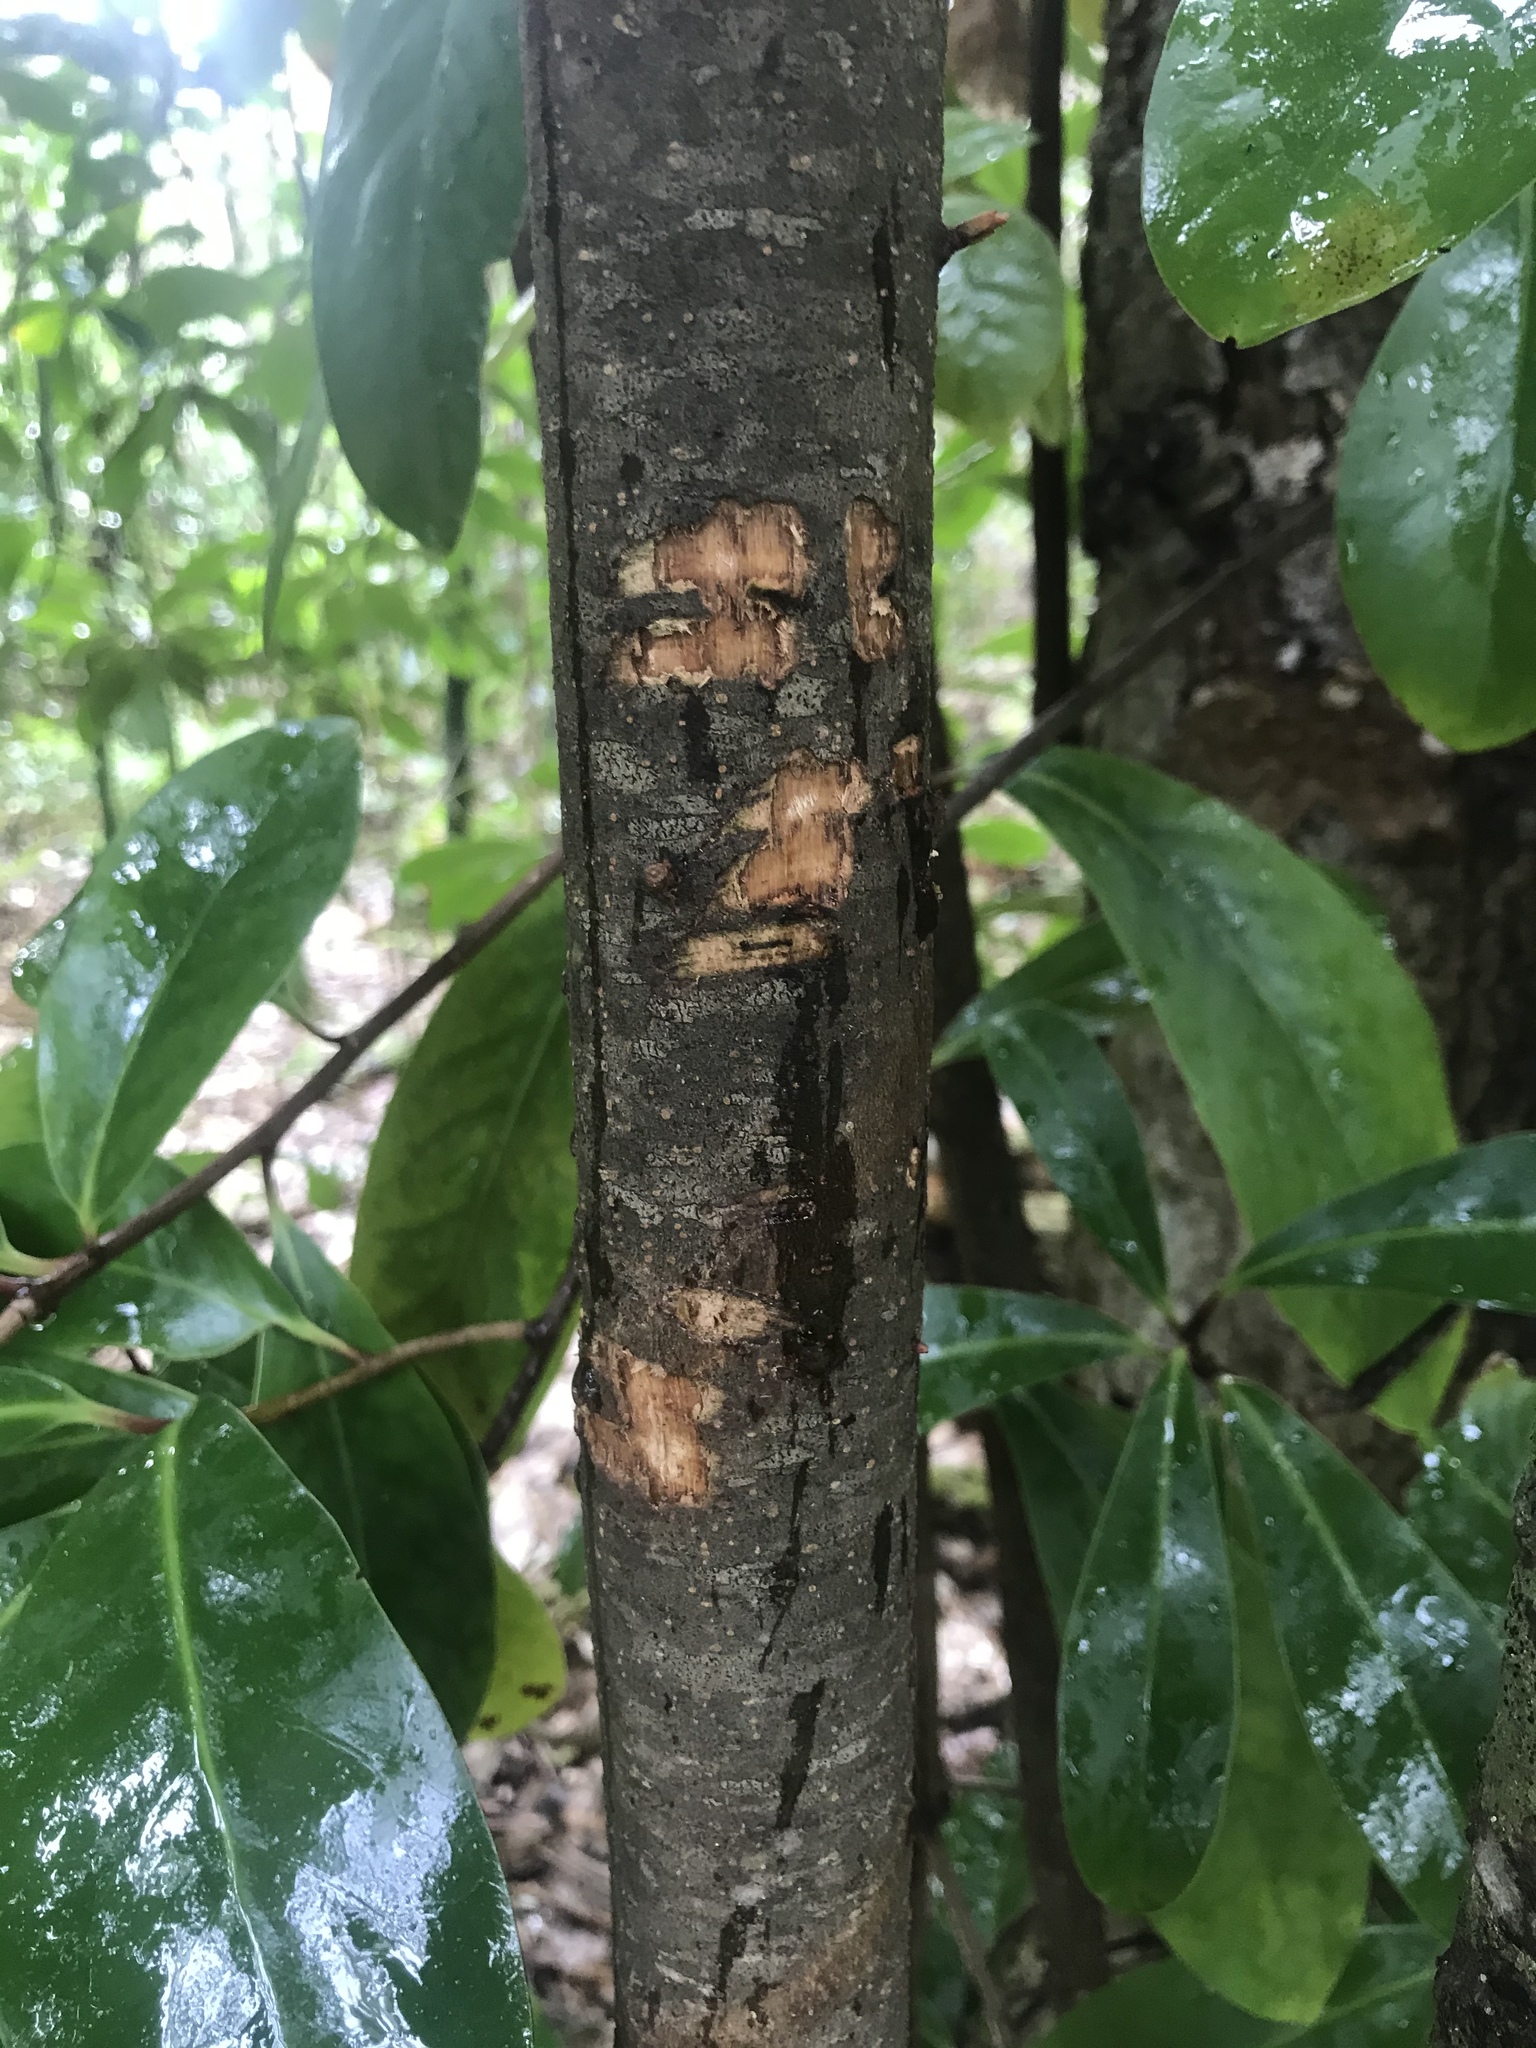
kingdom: Animalia
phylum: Chordata
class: Mammalia
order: Diprotodontia
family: Phalangeridae
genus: Trichosurus
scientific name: Trichosurus vulpecula
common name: Common brushtail
